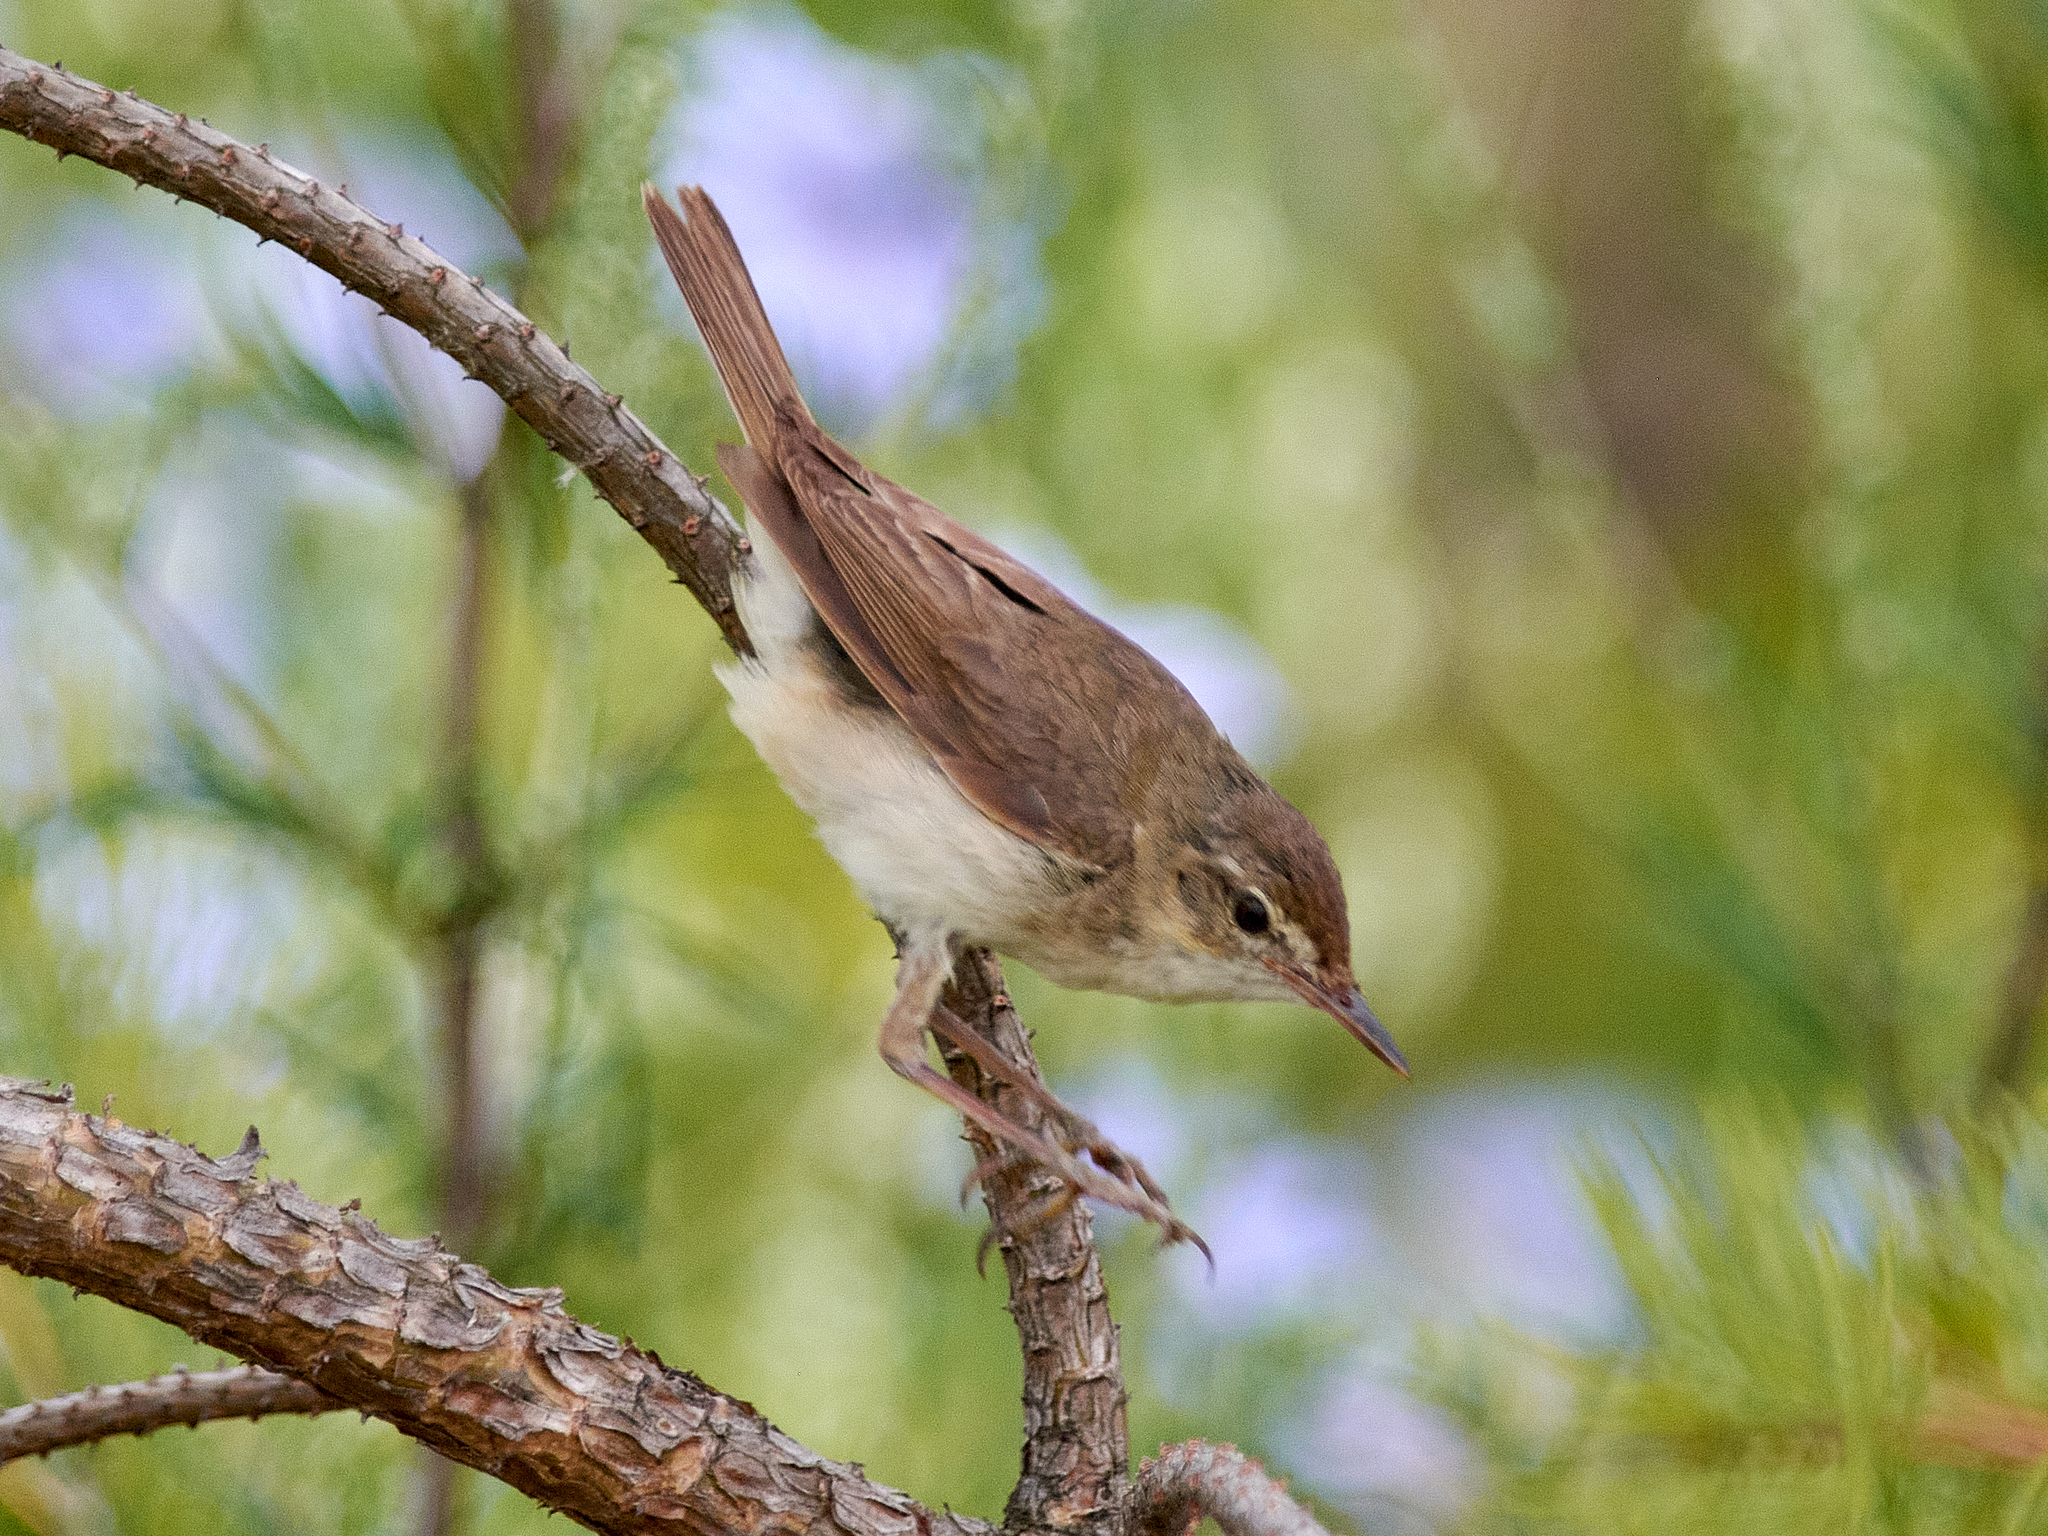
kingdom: Animalia
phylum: Chordata
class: Aves
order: Passeriformes
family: Acrocephalidae
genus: Acrocephalus
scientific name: Acrocephalus dumetorum
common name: Blyth's reed warbler
